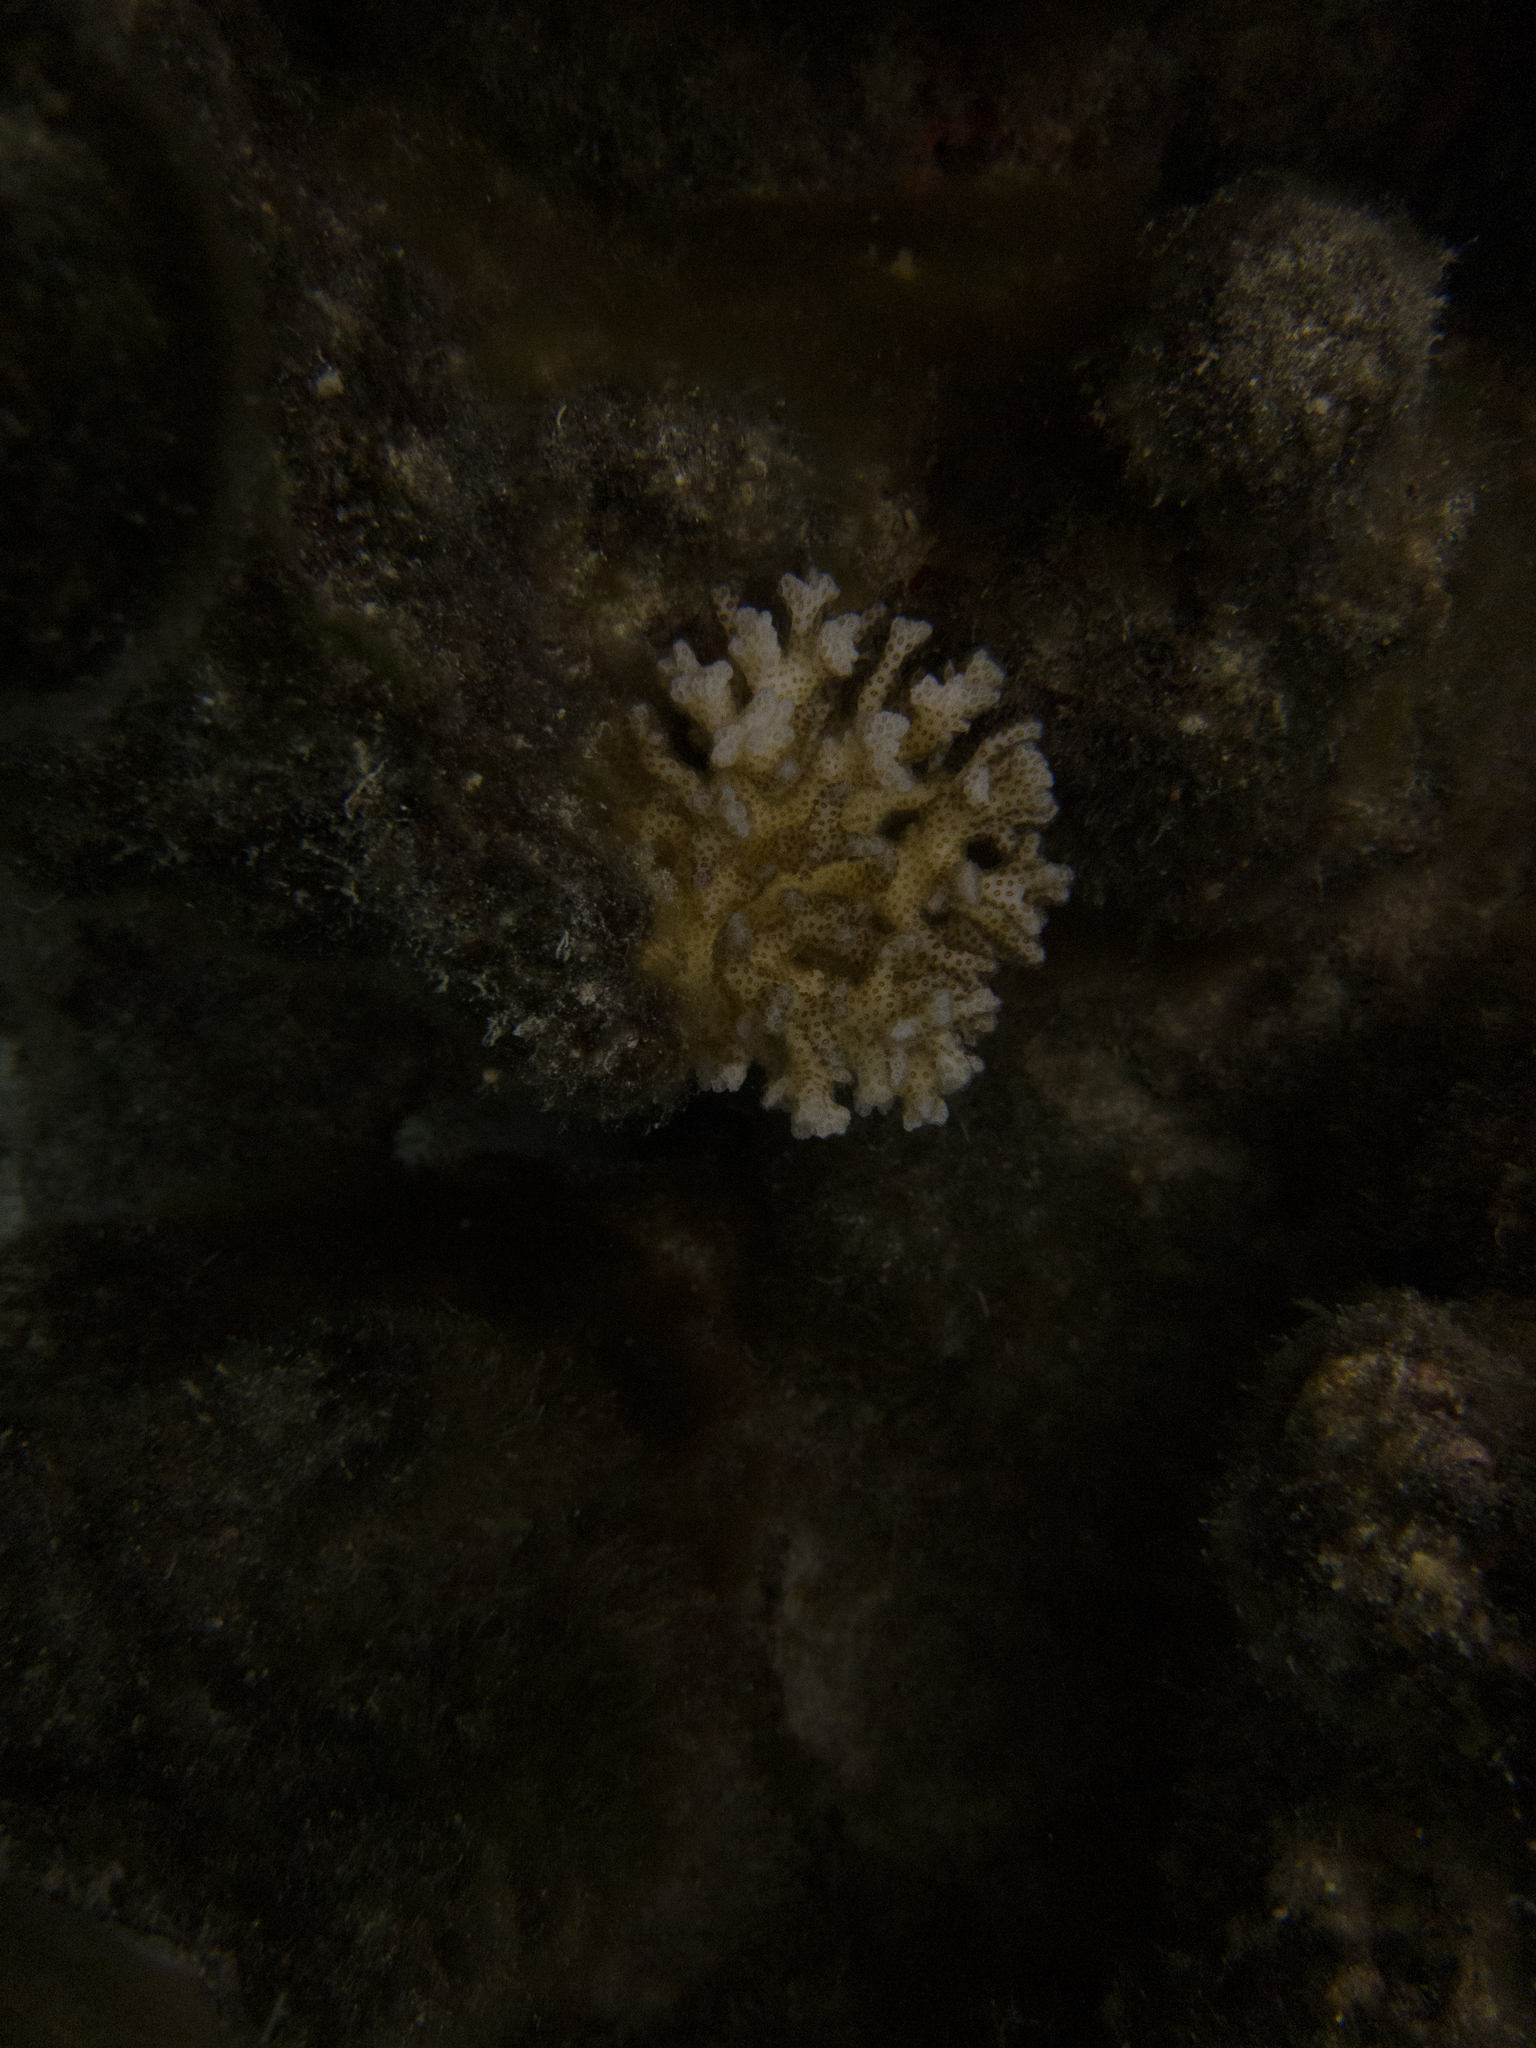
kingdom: Animalia
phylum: Cnidaria
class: Anthozoa
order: Scleractinia
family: Pocilloporidae
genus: Pocillopora
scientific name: Pocillopora damicornis
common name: Cauliflower coral
